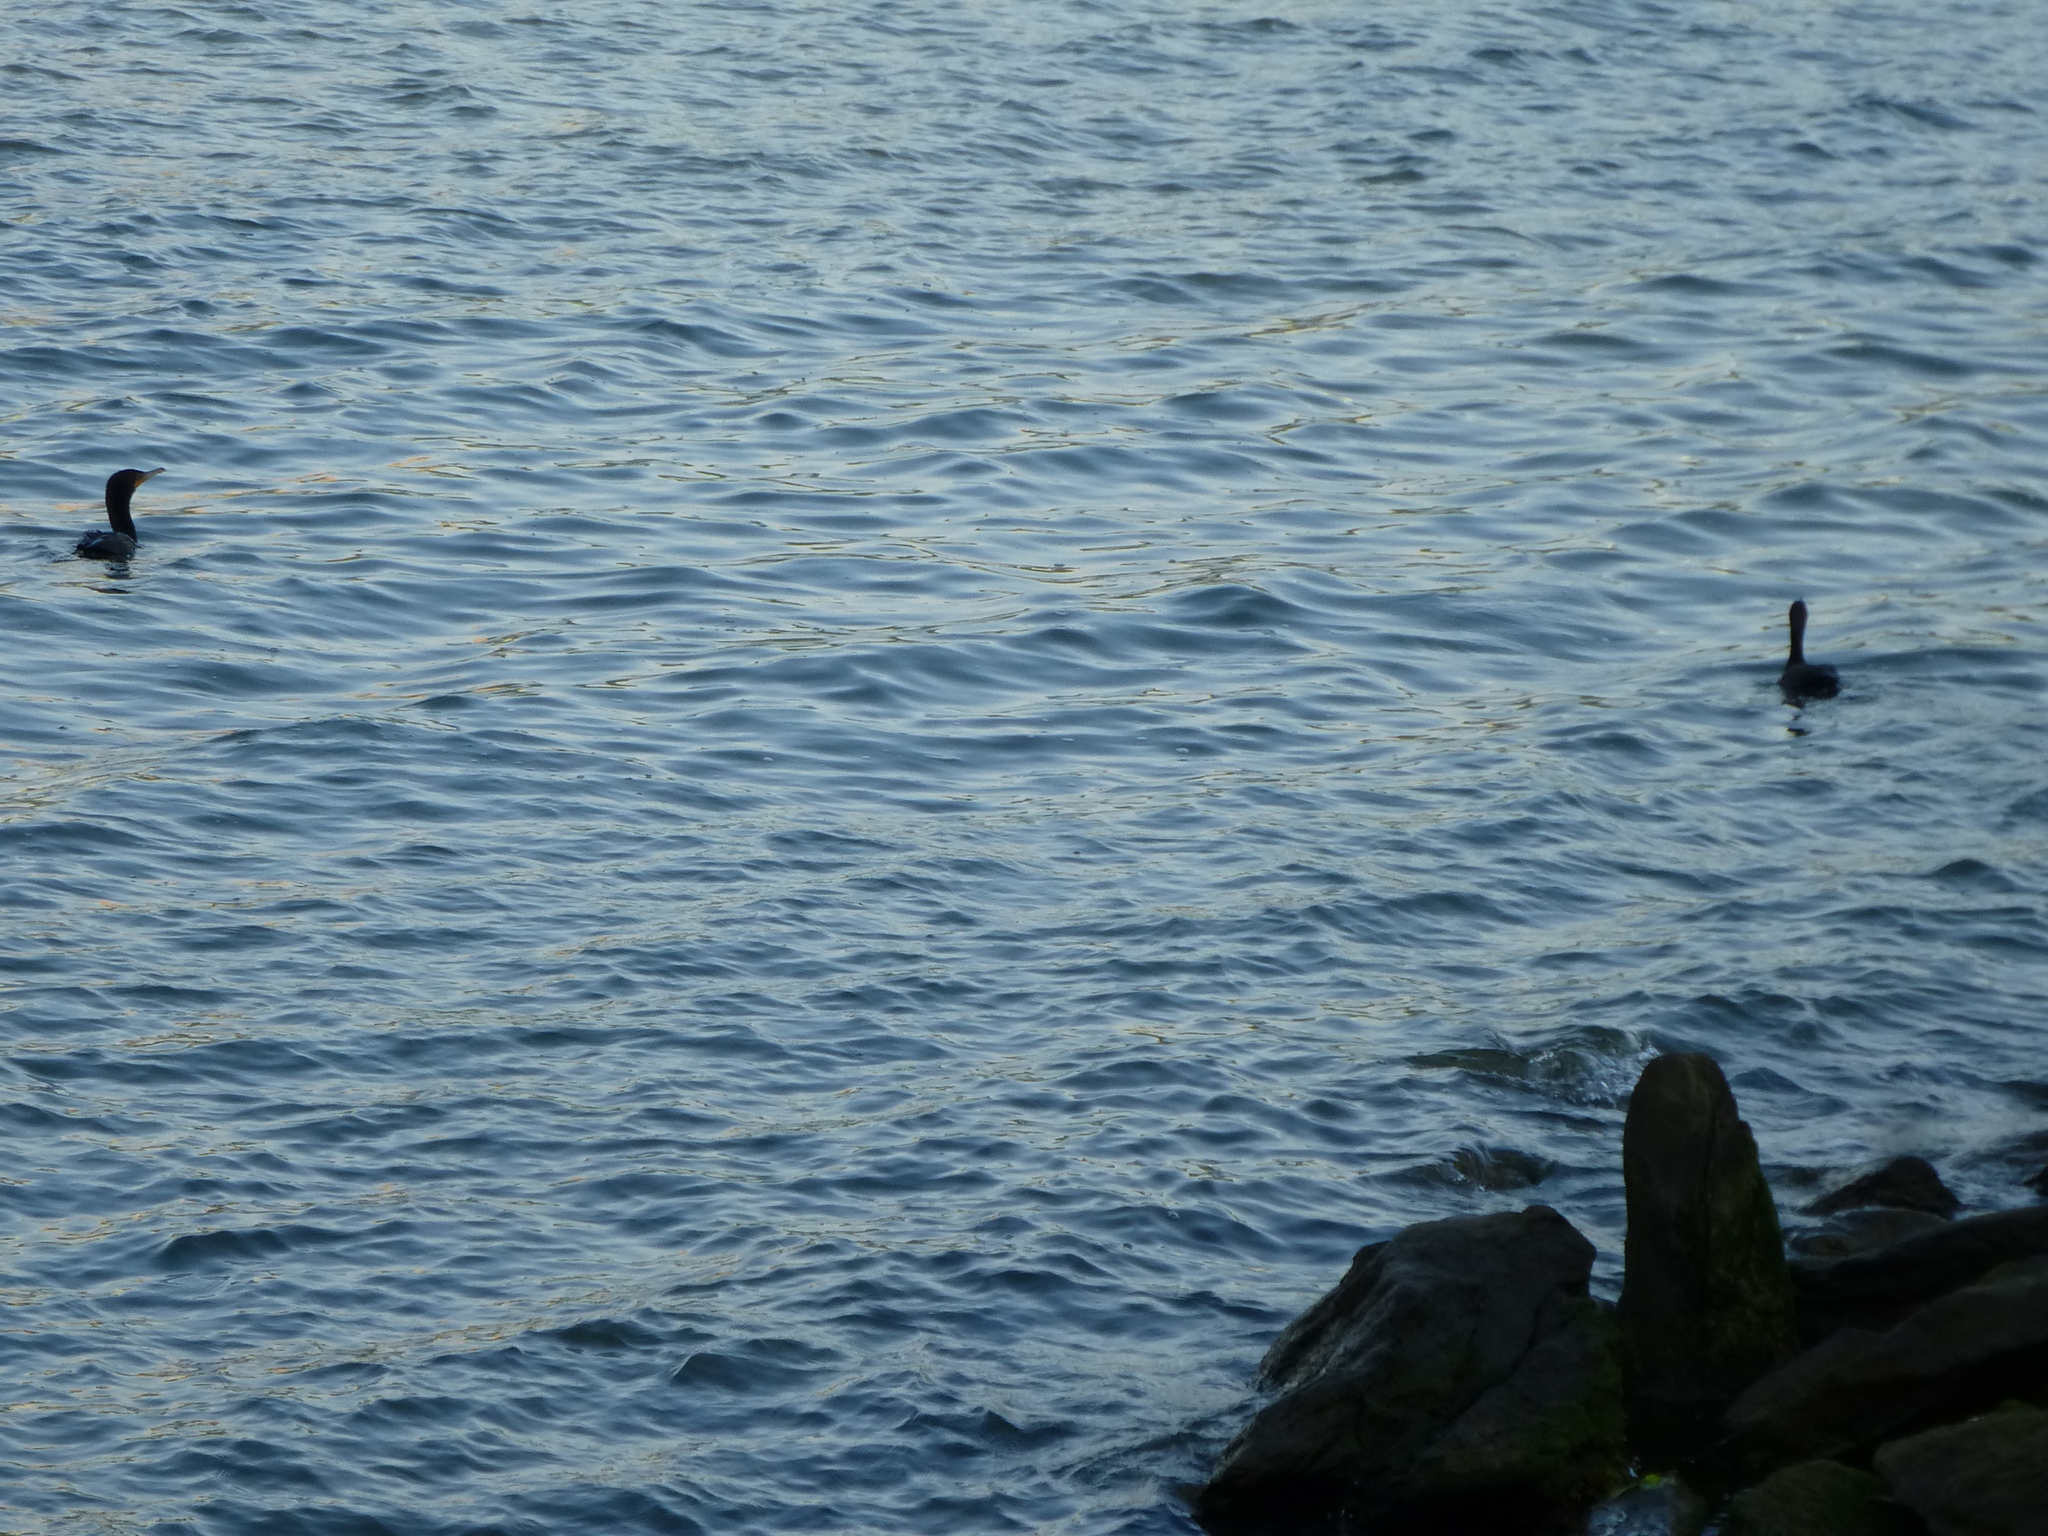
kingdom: Animalia
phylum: Chordata
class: Aves
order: Suliformes
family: Phalacrocoracidae
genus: Phalacrocorax
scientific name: Phalacrocorax auritus
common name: Double-crested cormorant
